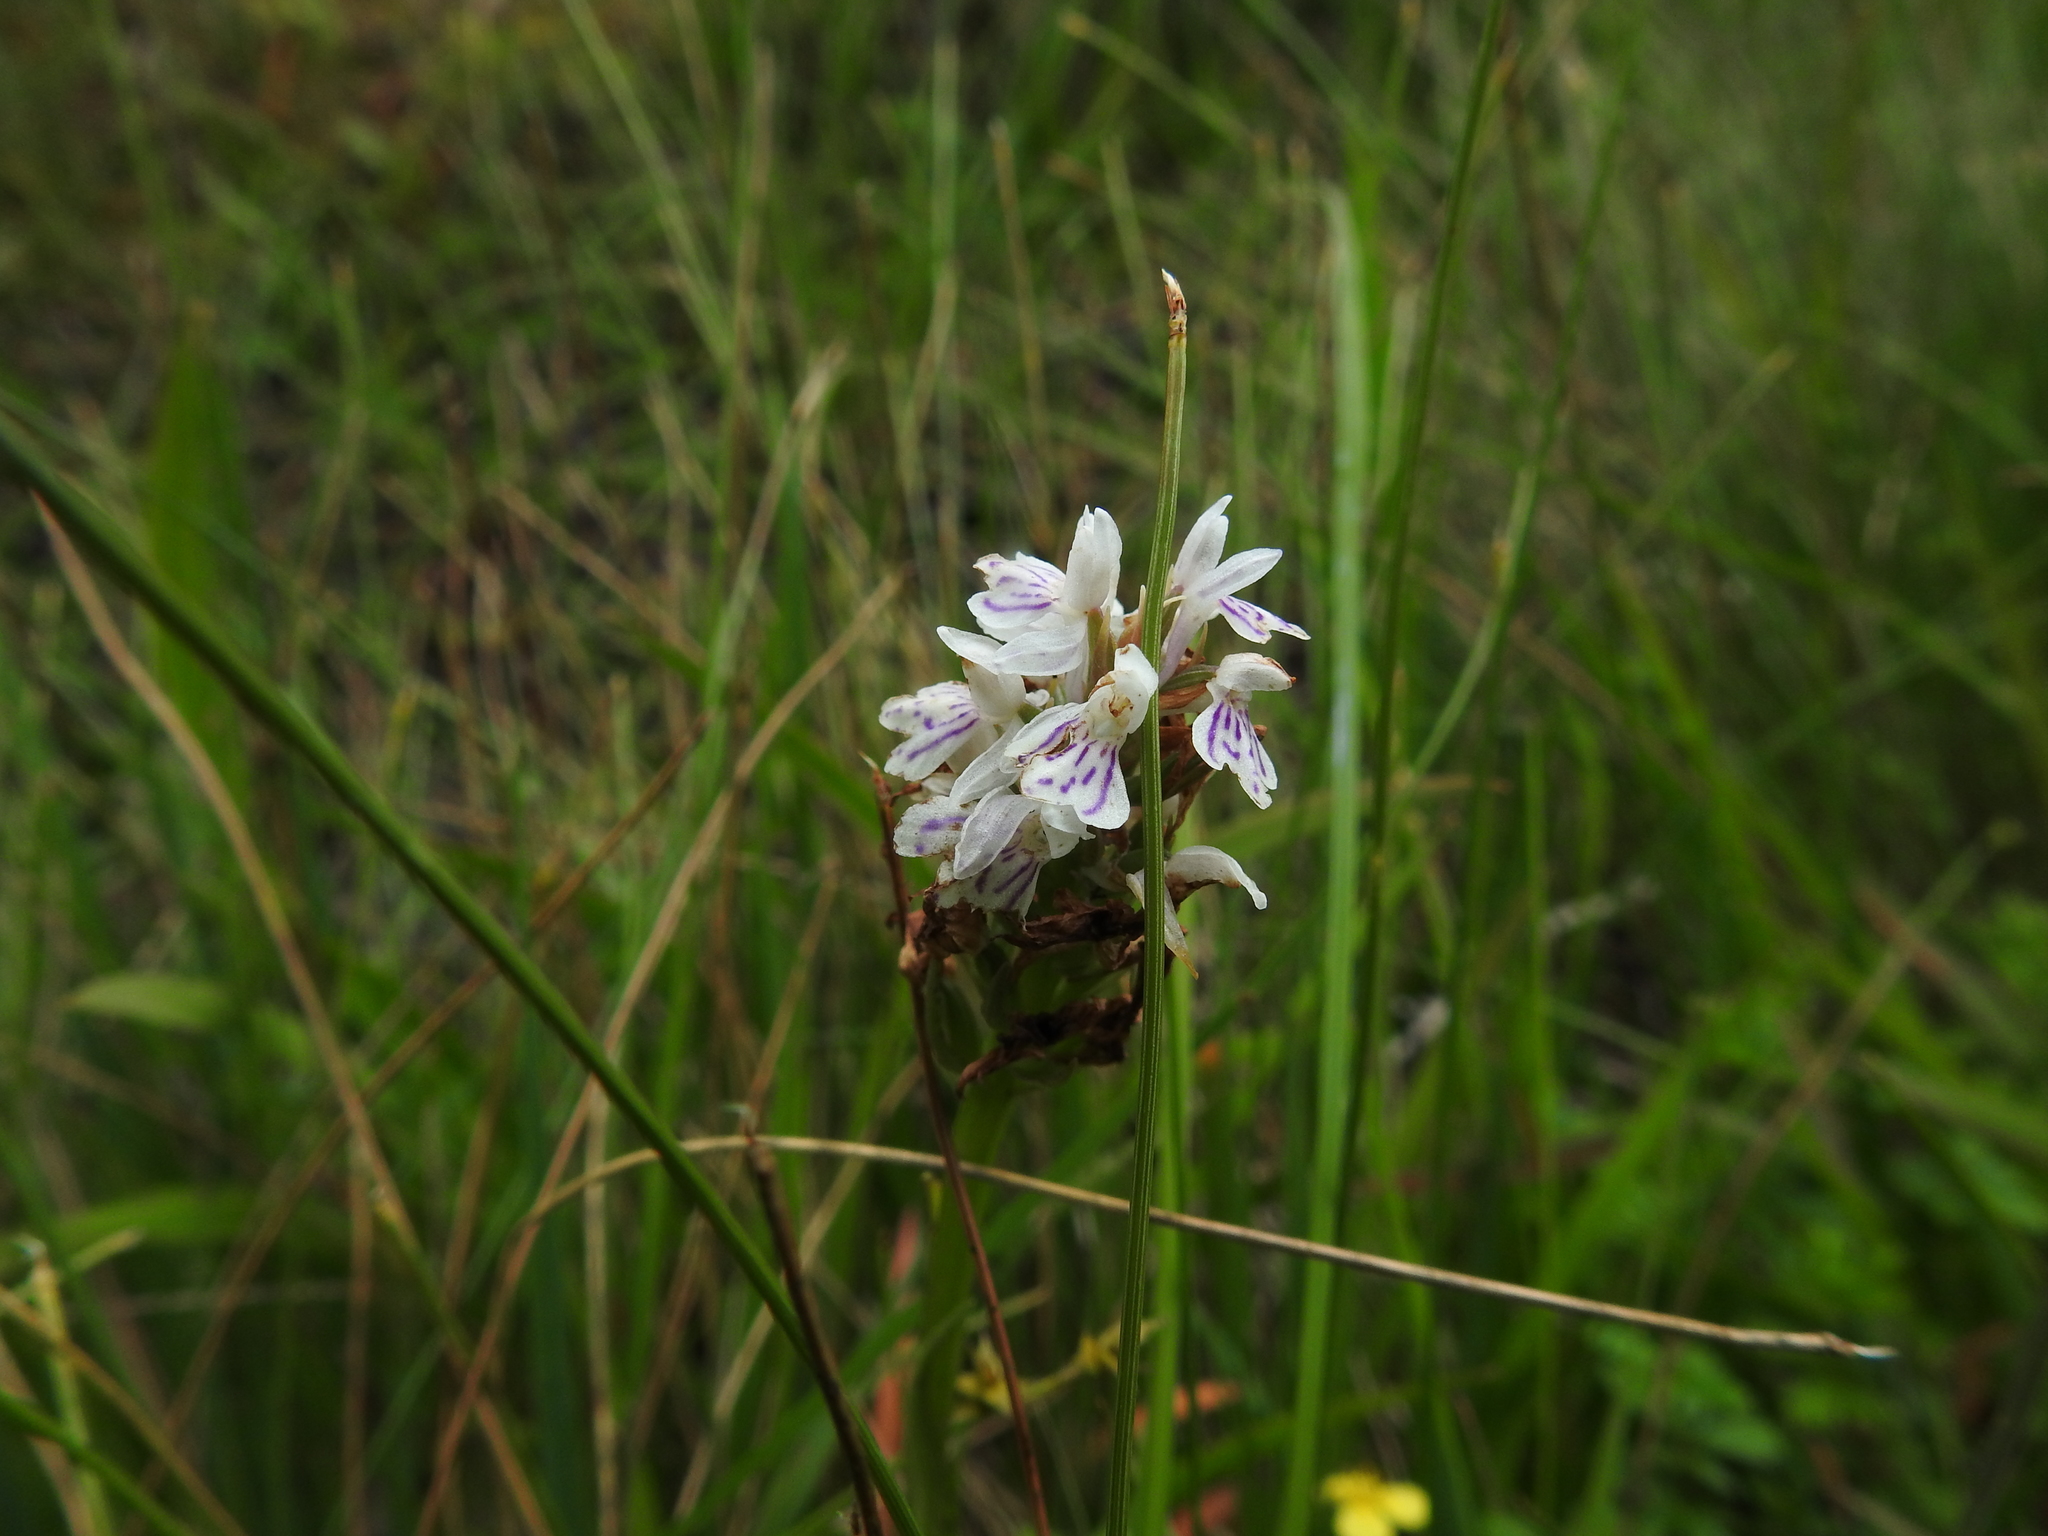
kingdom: Plantae
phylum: Tracheophyta
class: Liliopsida
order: Asparagales
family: Orchidaceae
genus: Dactylorhiza
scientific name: Dactylorhiza maculata
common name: Heath spotted-orchid
